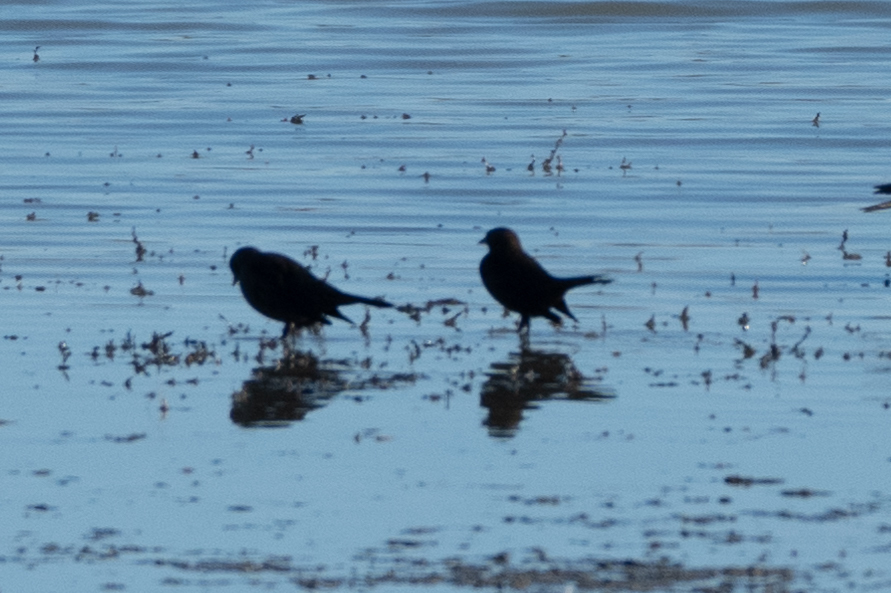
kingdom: Animalia
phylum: Chordata
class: Aves
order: Passeriformes
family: Icteridae
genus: Euphagus
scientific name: Euphagus cyanocephalus
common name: Brewer's blackbird
